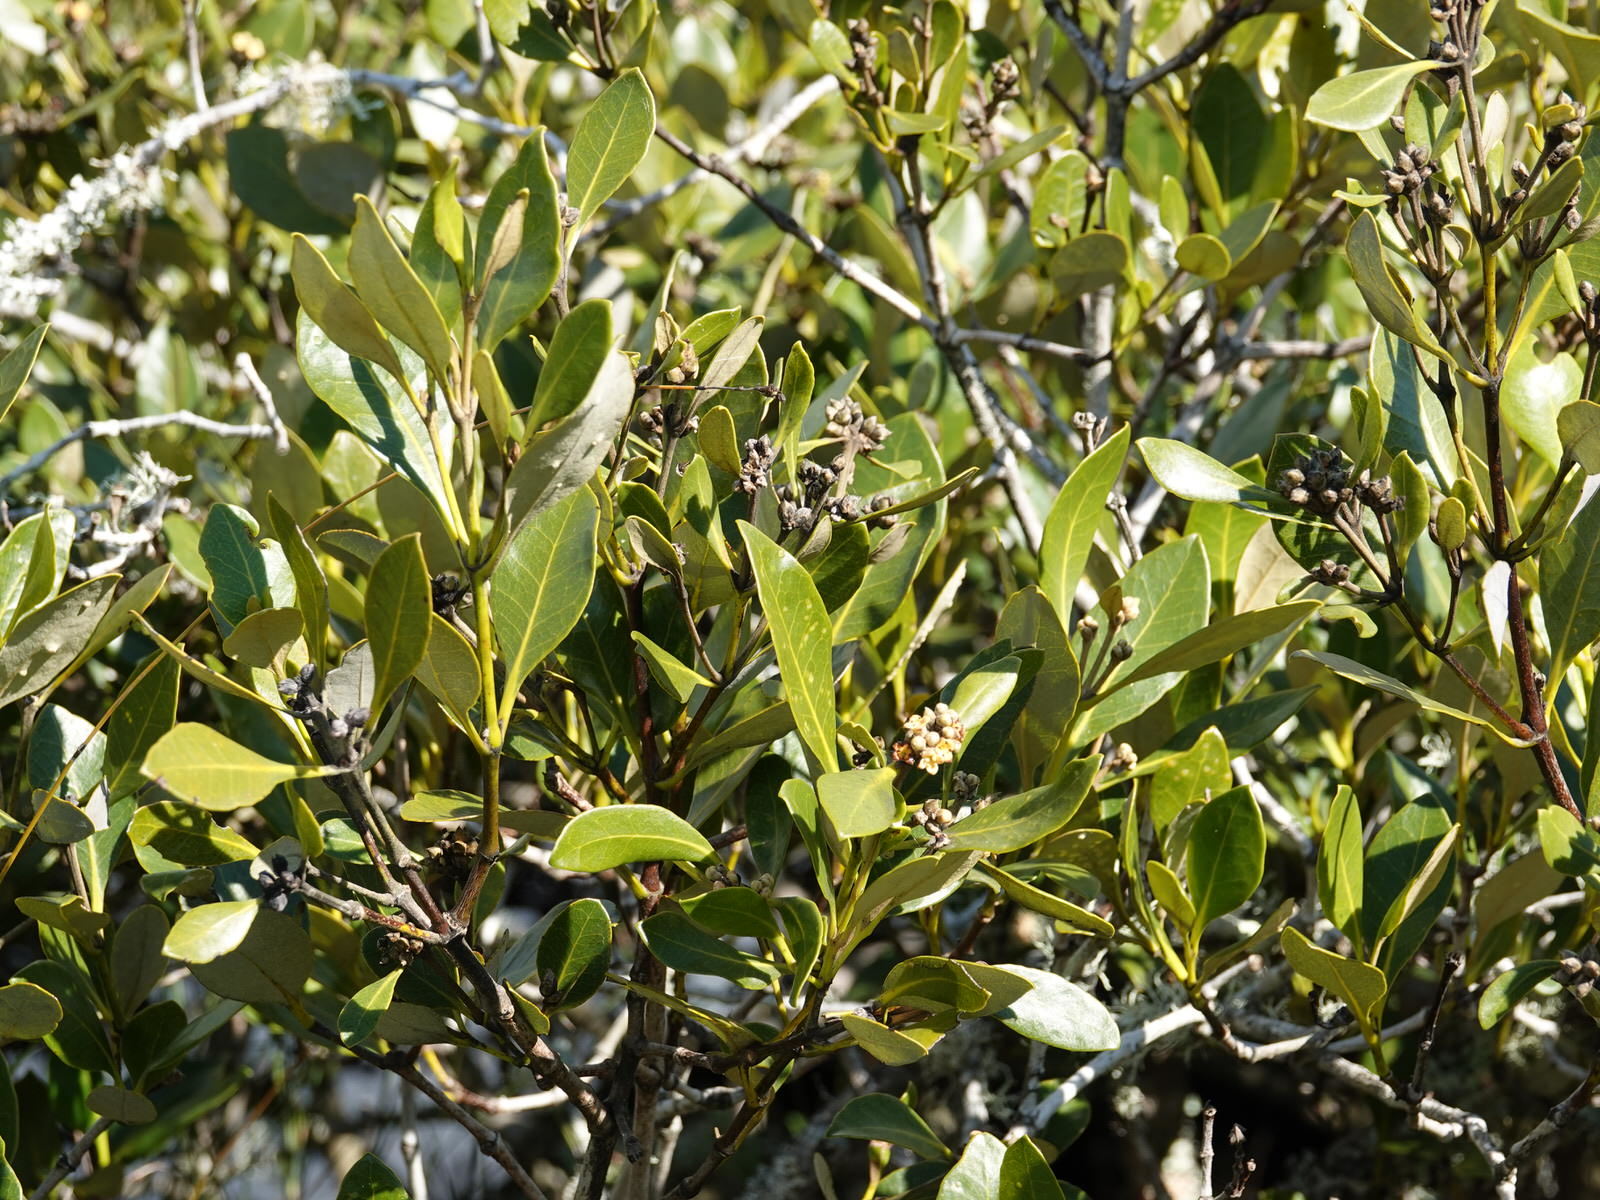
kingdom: Plantae
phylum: Tracheophyta
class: Magnoliopsida
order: Lamiales
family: Acanthaceae
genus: Avicennia
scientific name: Avicennia marina
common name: Gray mangrove
